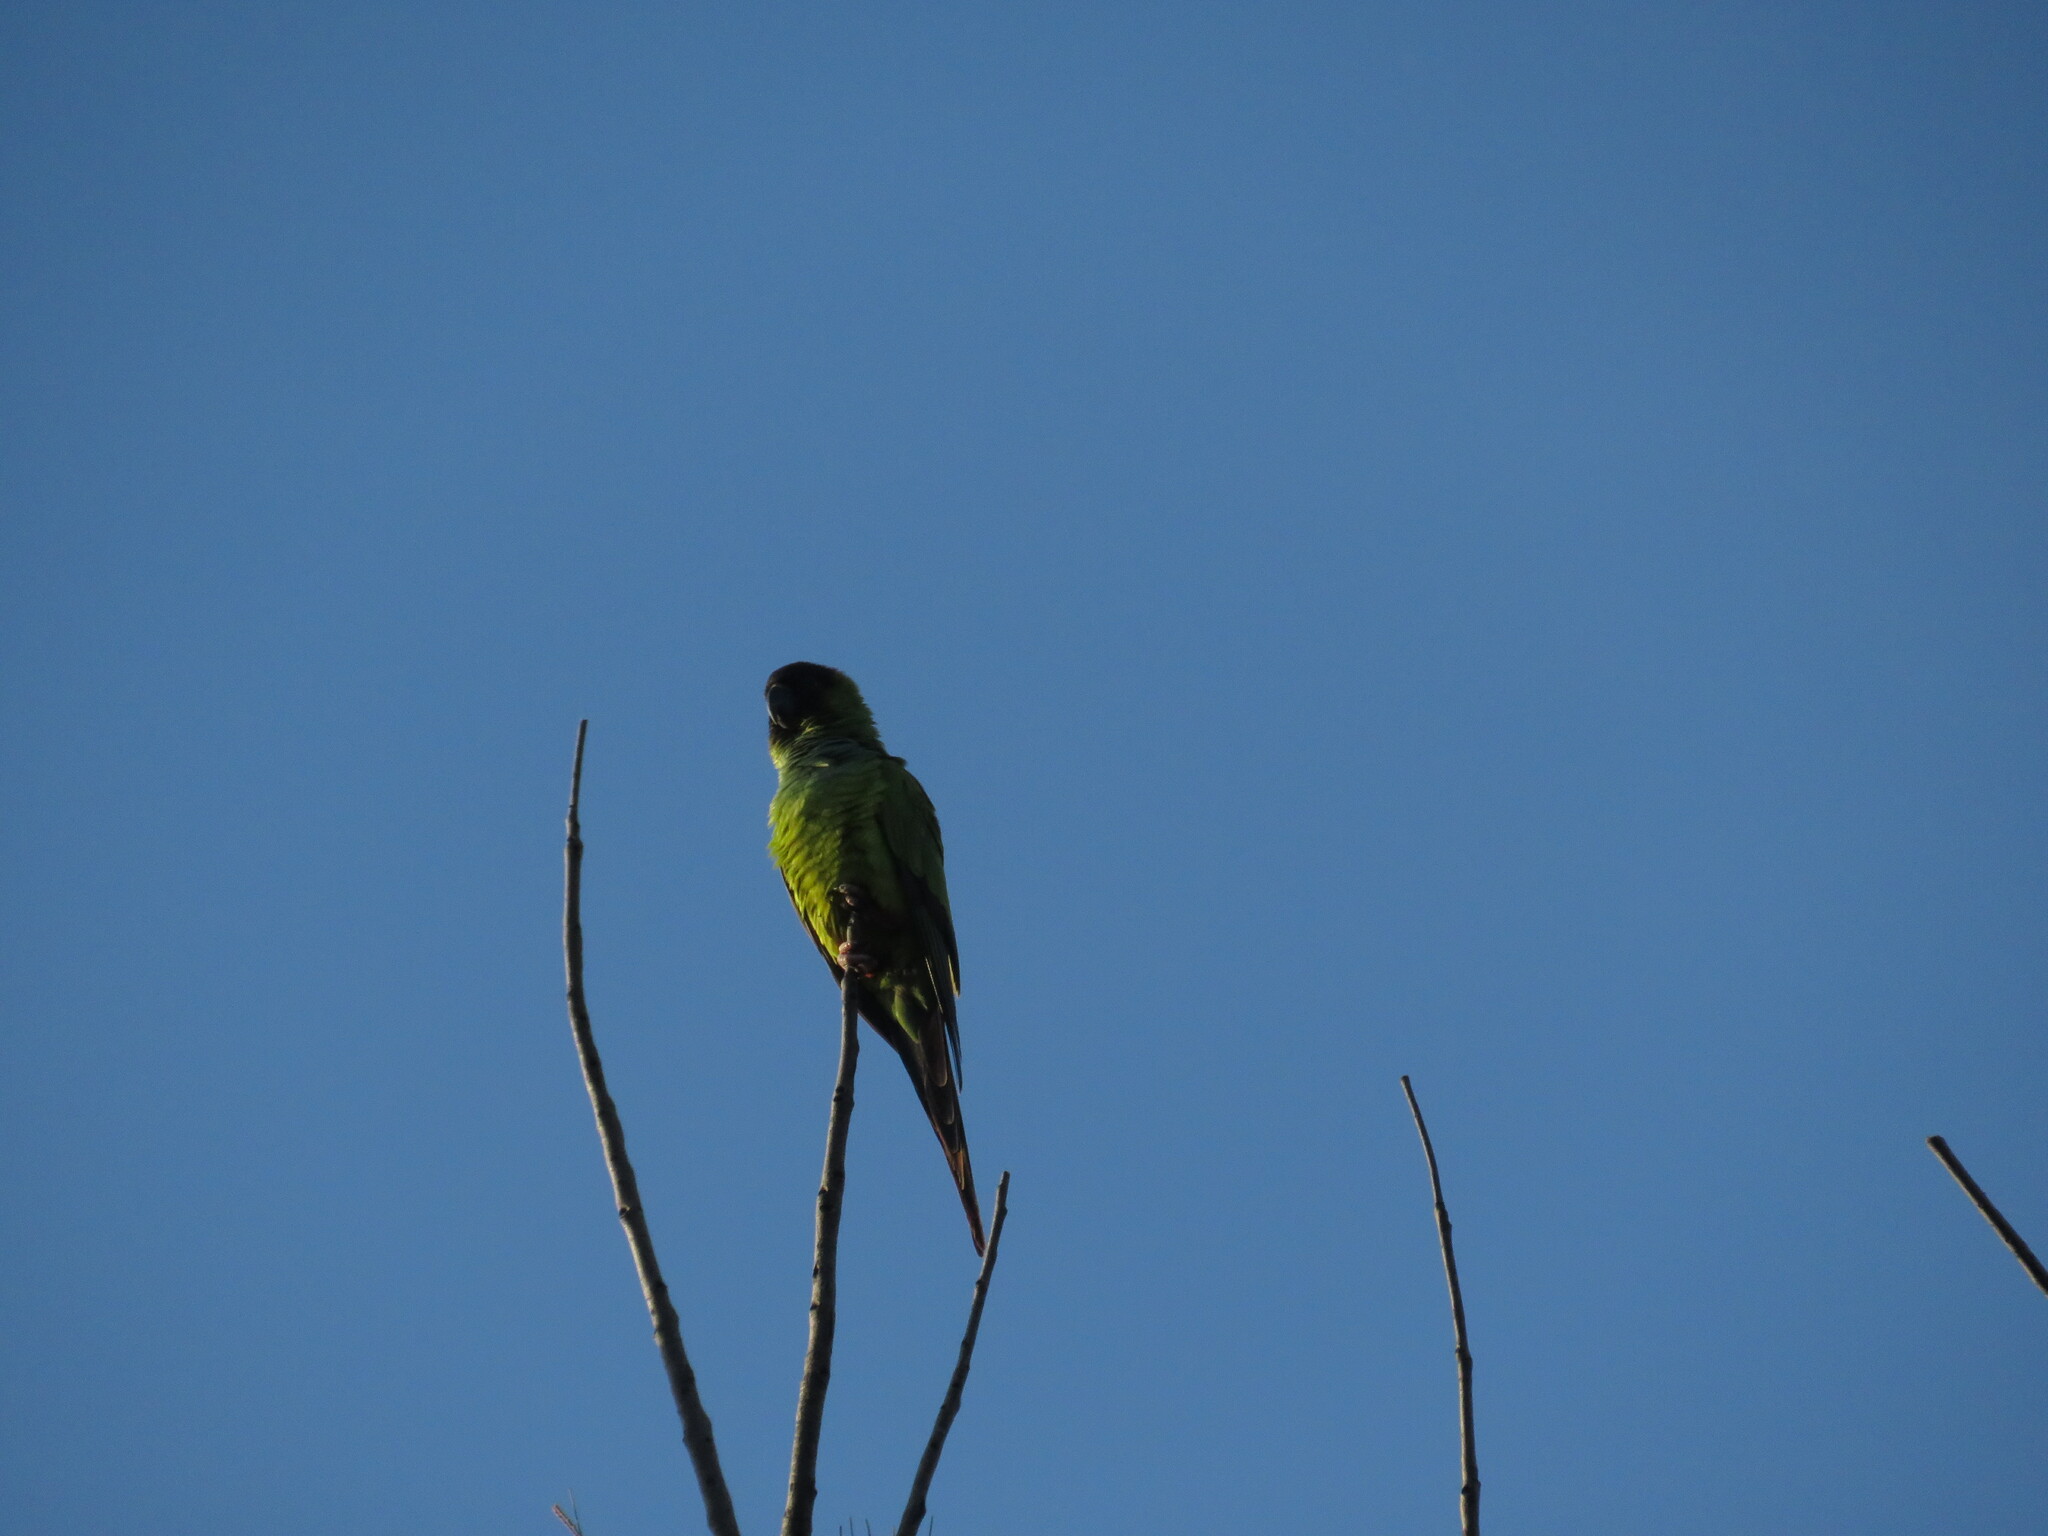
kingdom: Animalia
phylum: Chordata
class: Aves
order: Psittaciformes
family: Psittacidae
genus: Nandayus
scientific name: Nandayus nenday
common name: Nanday parakeet
